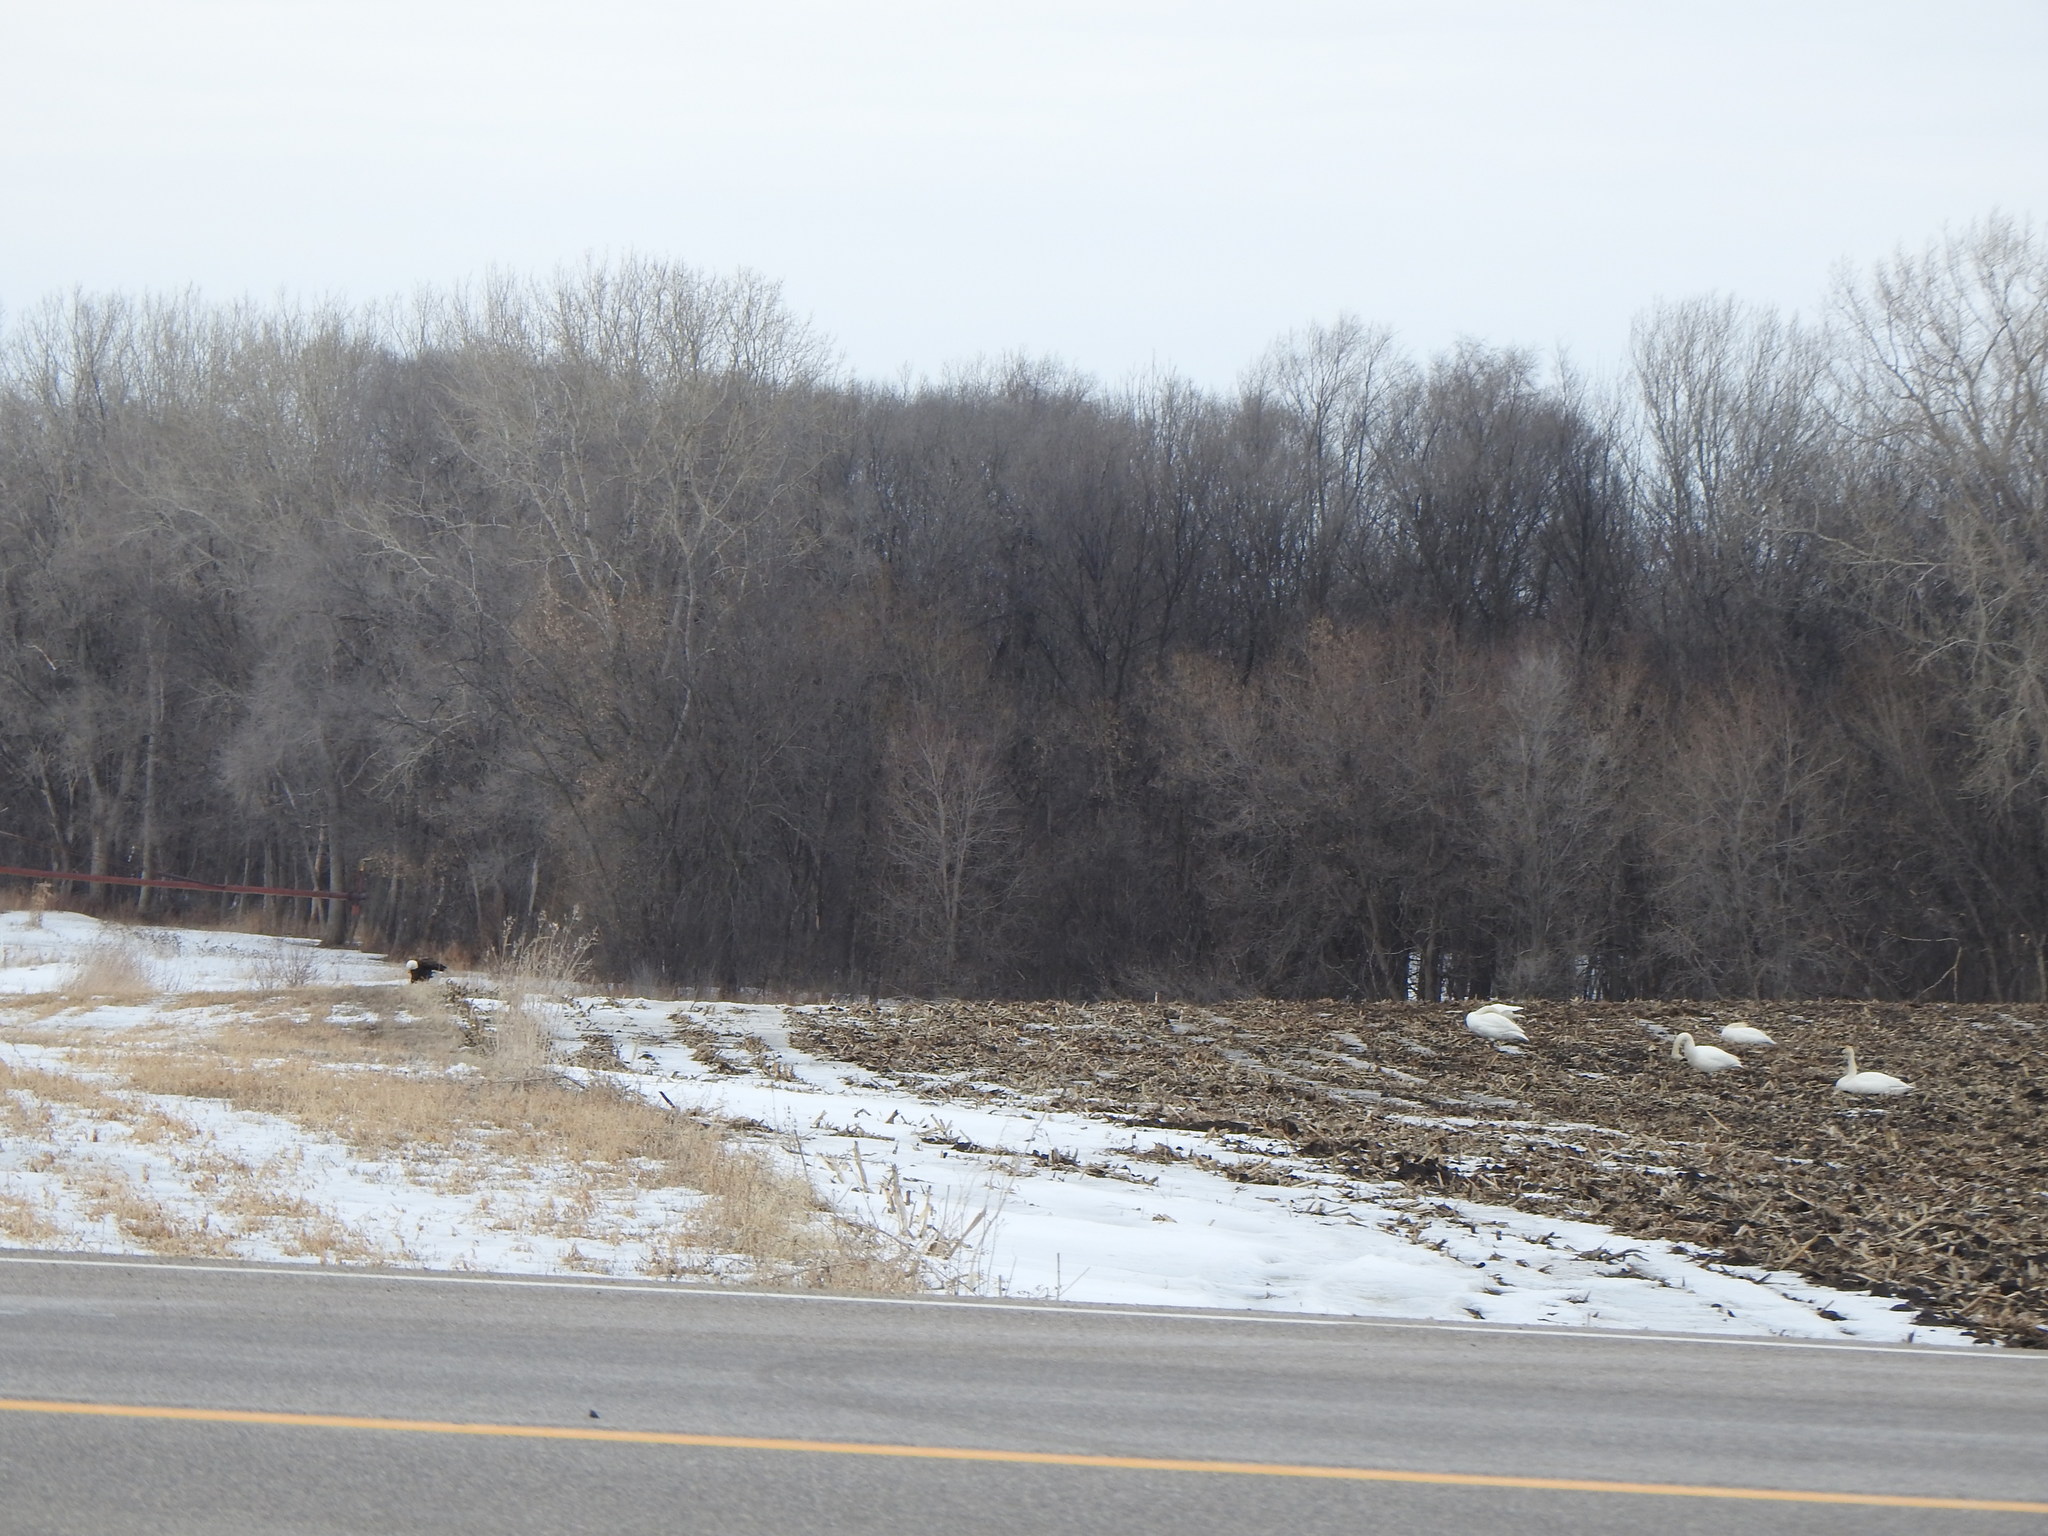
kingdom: Animalia
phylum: Chordata
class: Aves
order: Accipitriformes
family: Accipitridae
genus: Haliaeetus
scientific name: Haliaeetus leucocephalus
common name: Bald eagle
